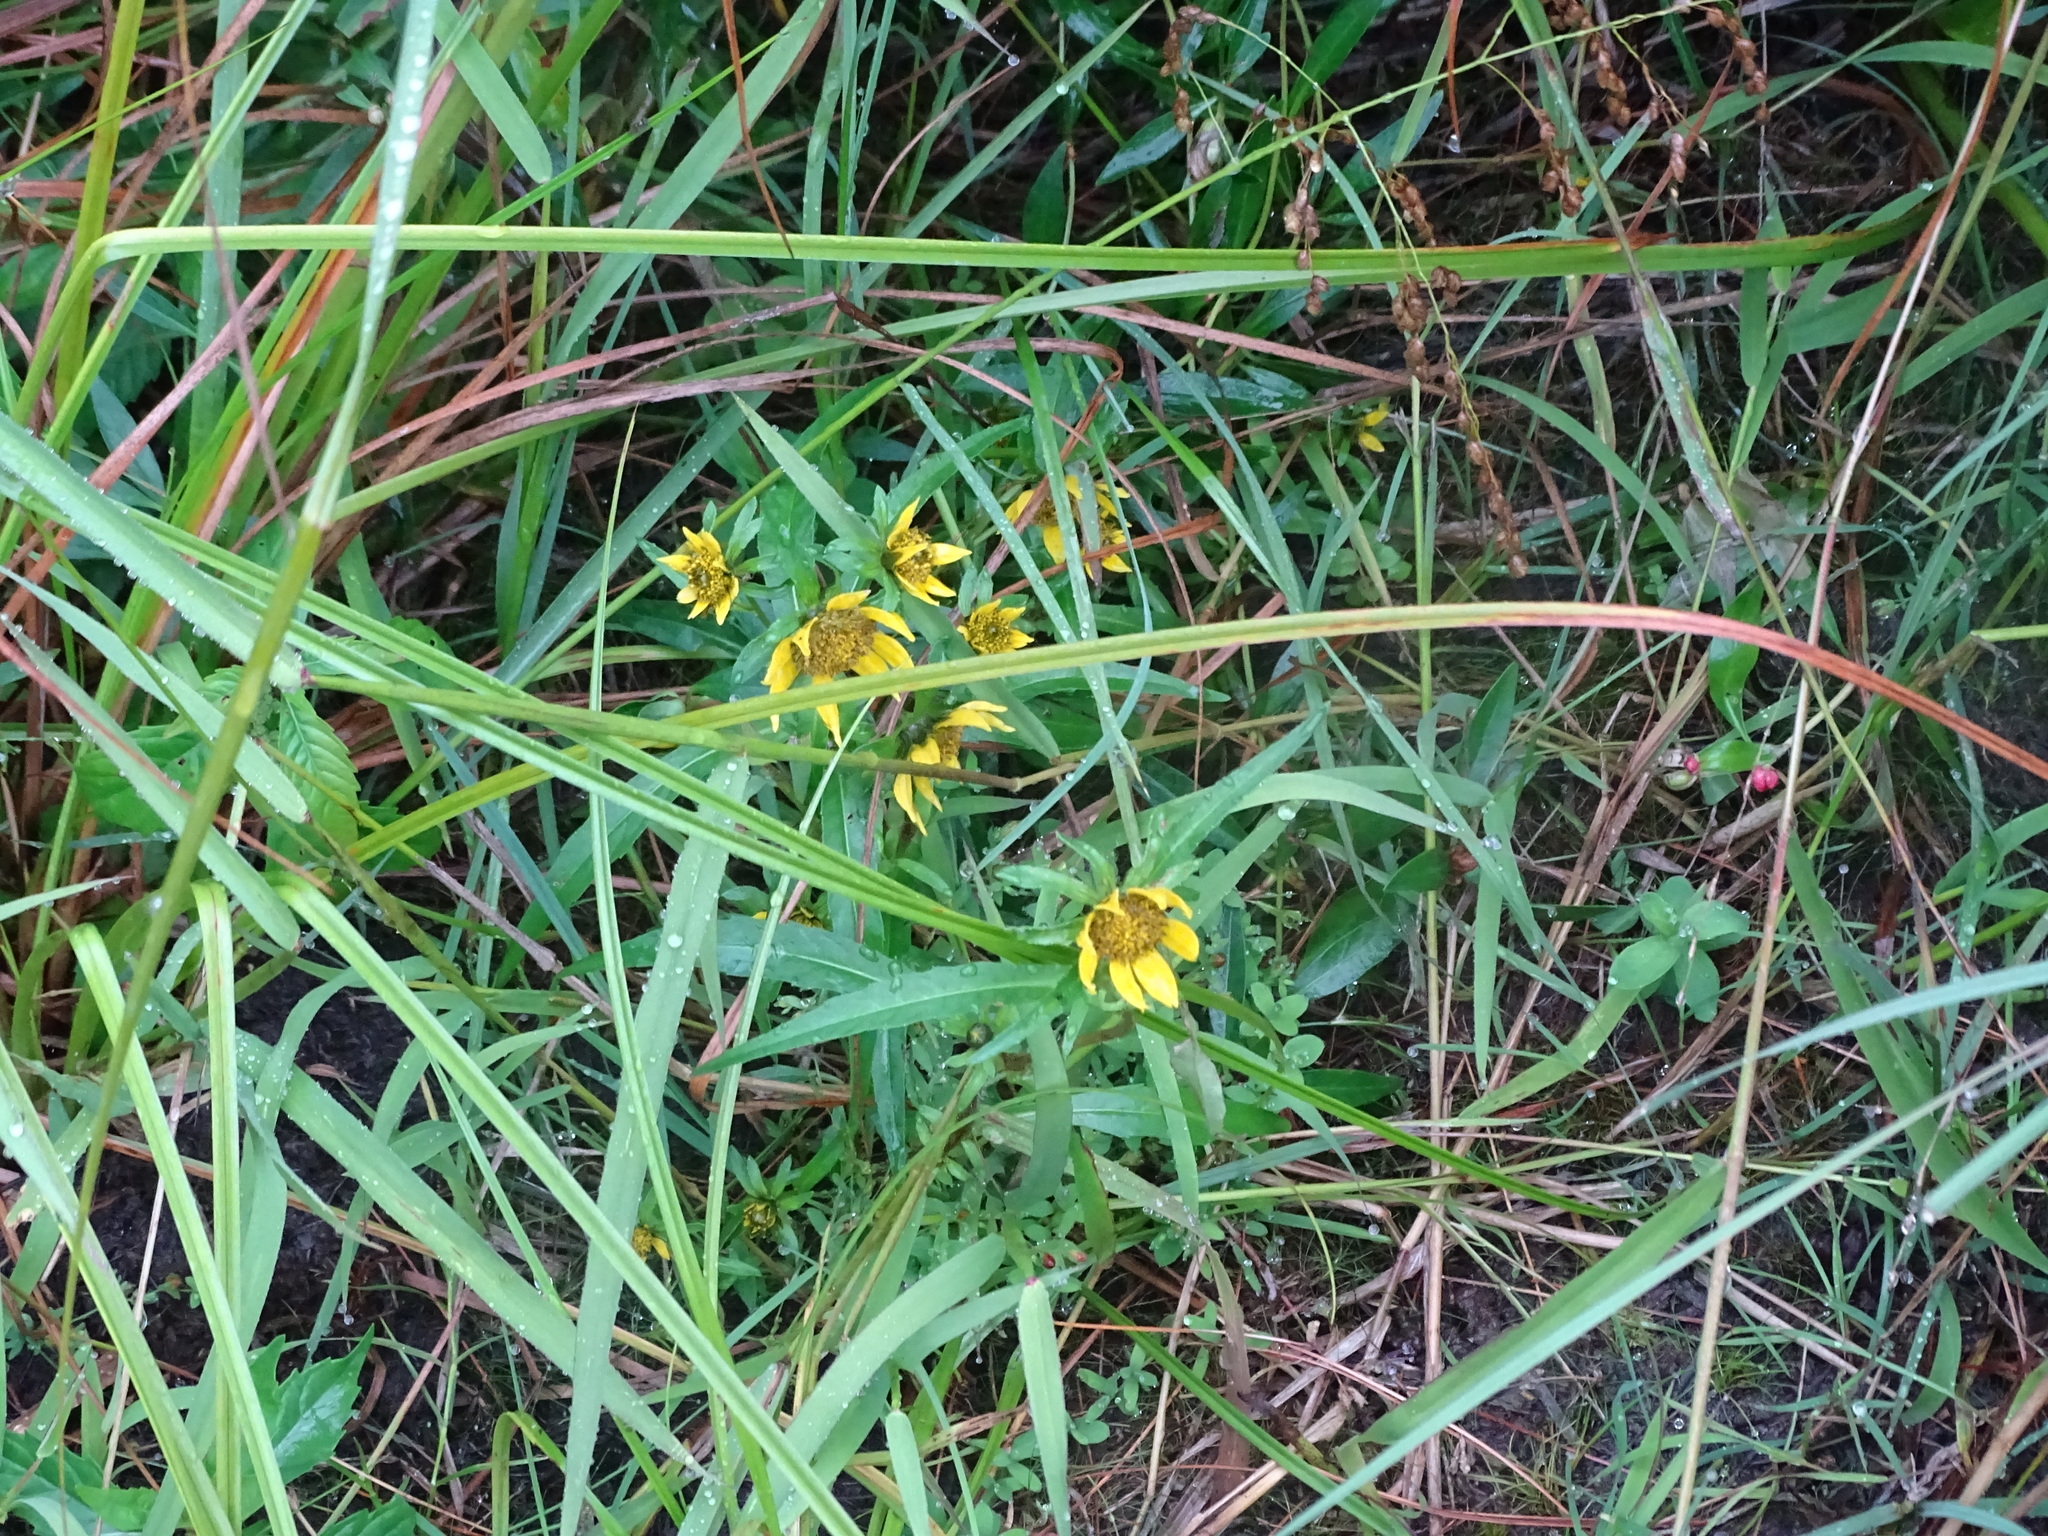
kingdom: Plantae
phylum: Tracheophyta
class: Magnoliopsida
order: Asterales
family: Asteraceae
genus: Bidens
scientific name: Bidens cernua
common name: Nodding bur-marigold
